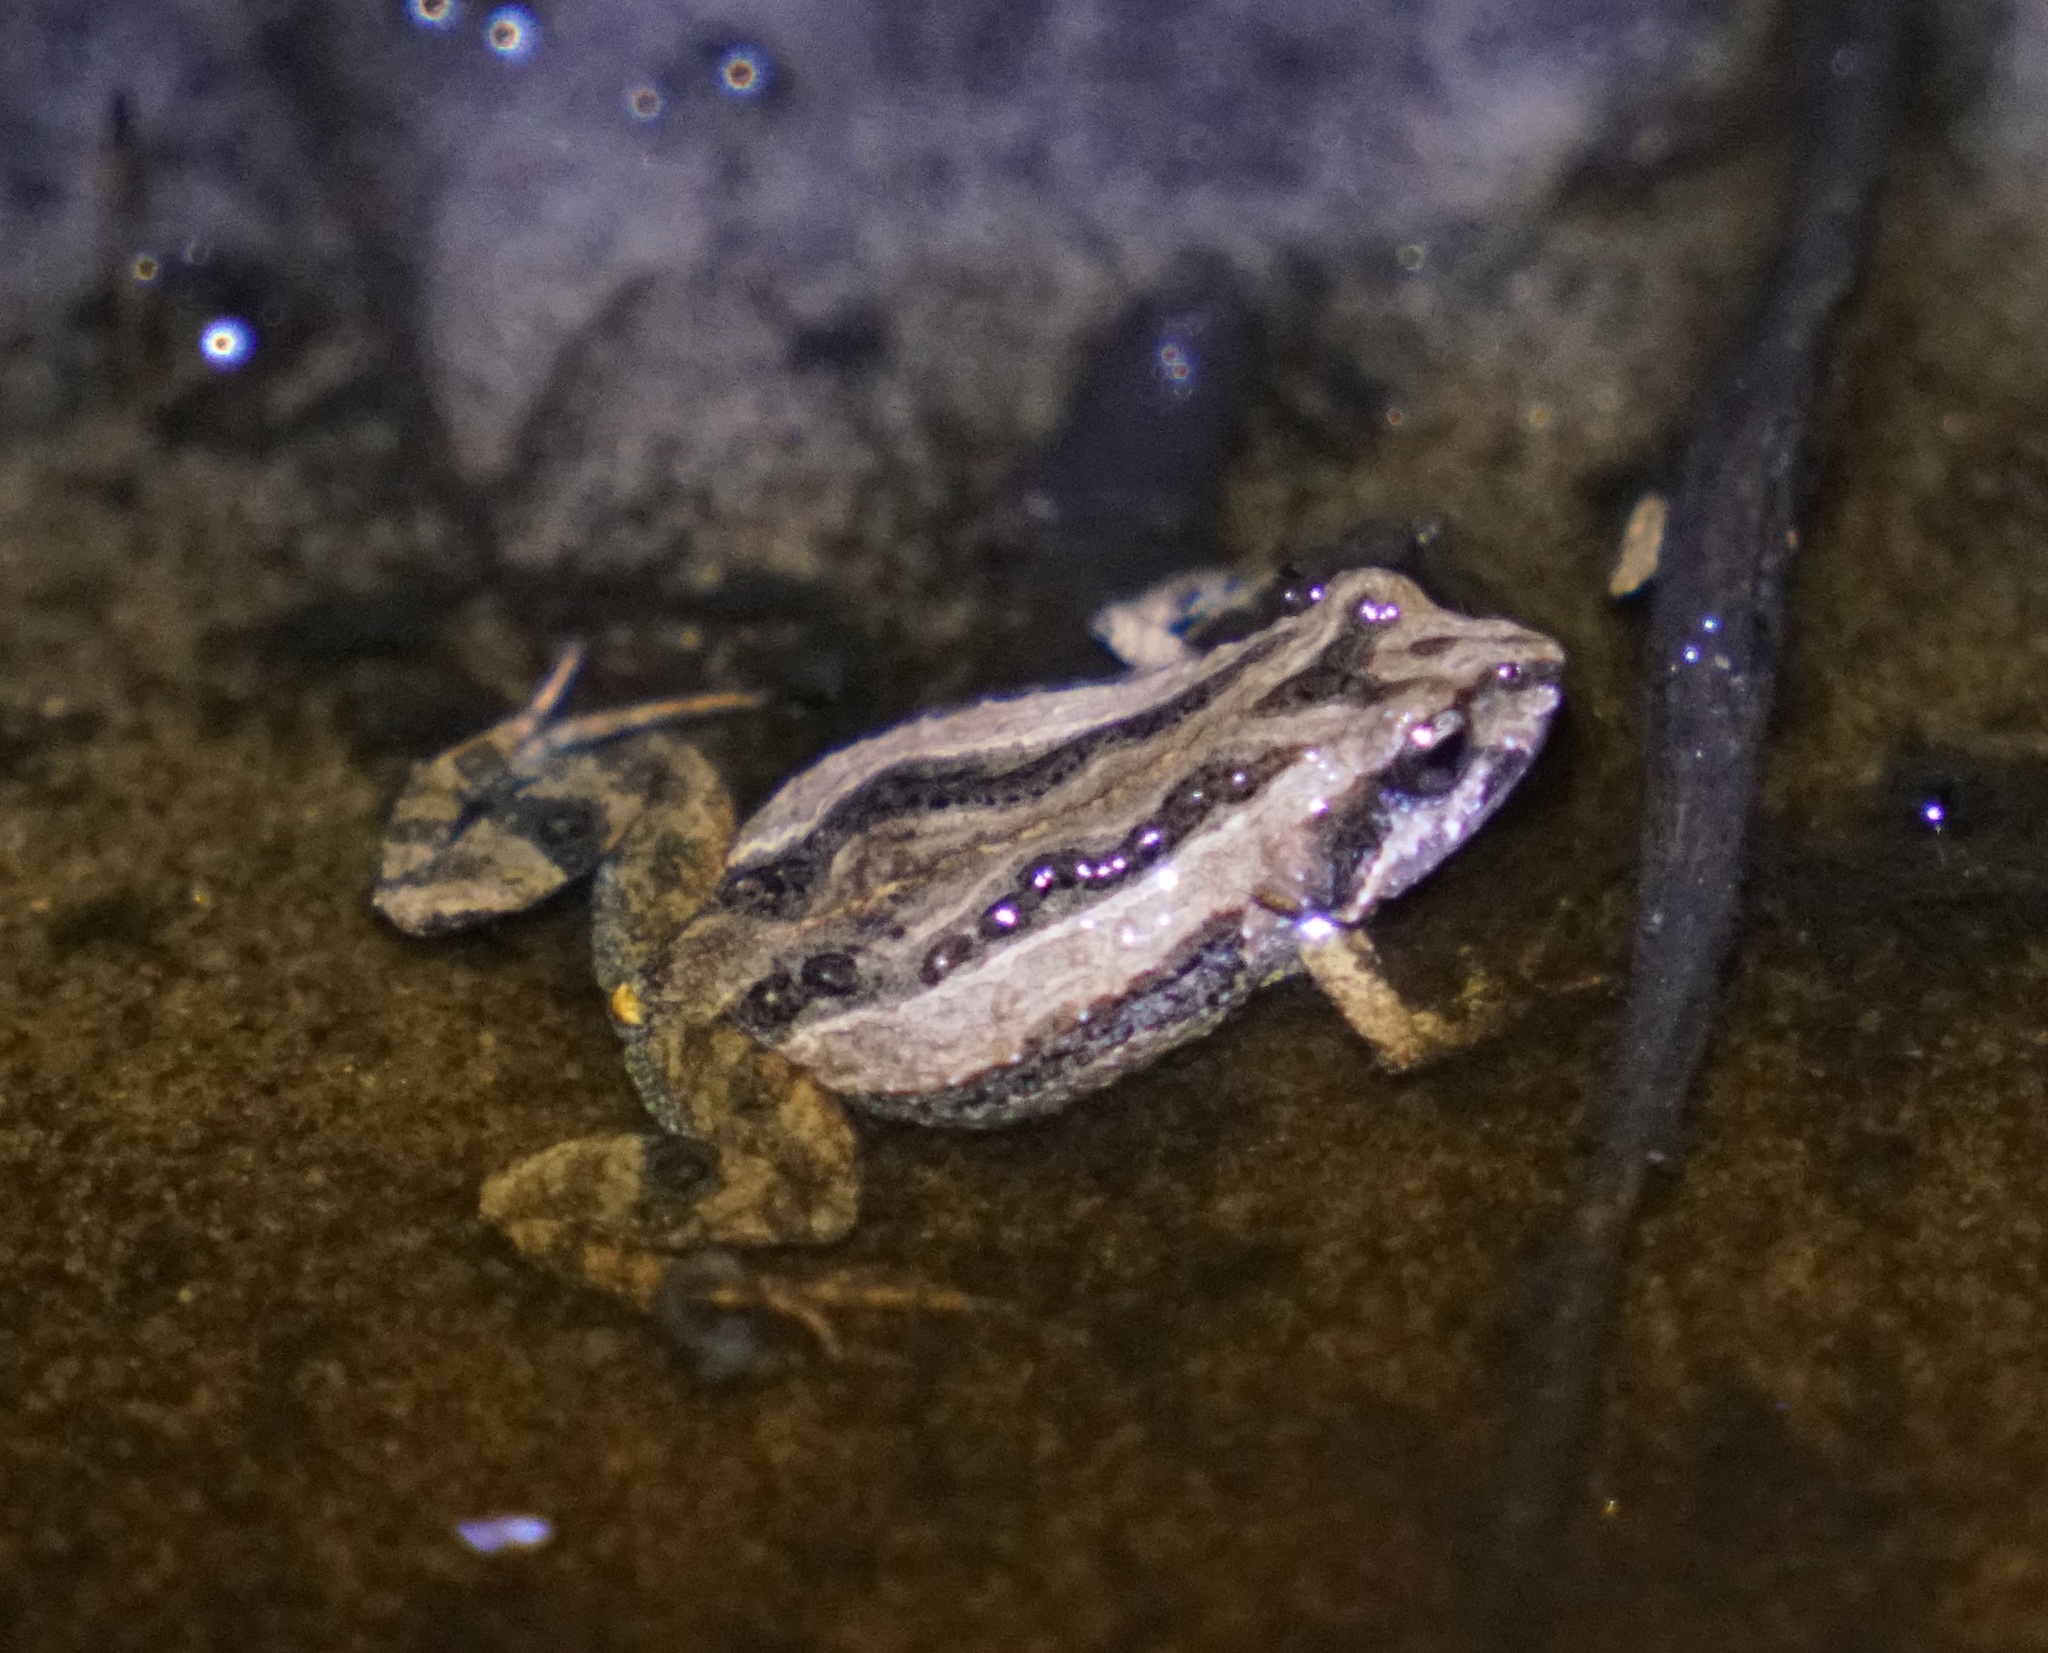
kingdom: Animalia
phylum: Chordata
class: Amphibia
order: Anura
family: Myobatrachidae
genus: Crinia
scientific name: Crinia signifera
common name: Brown froglet
